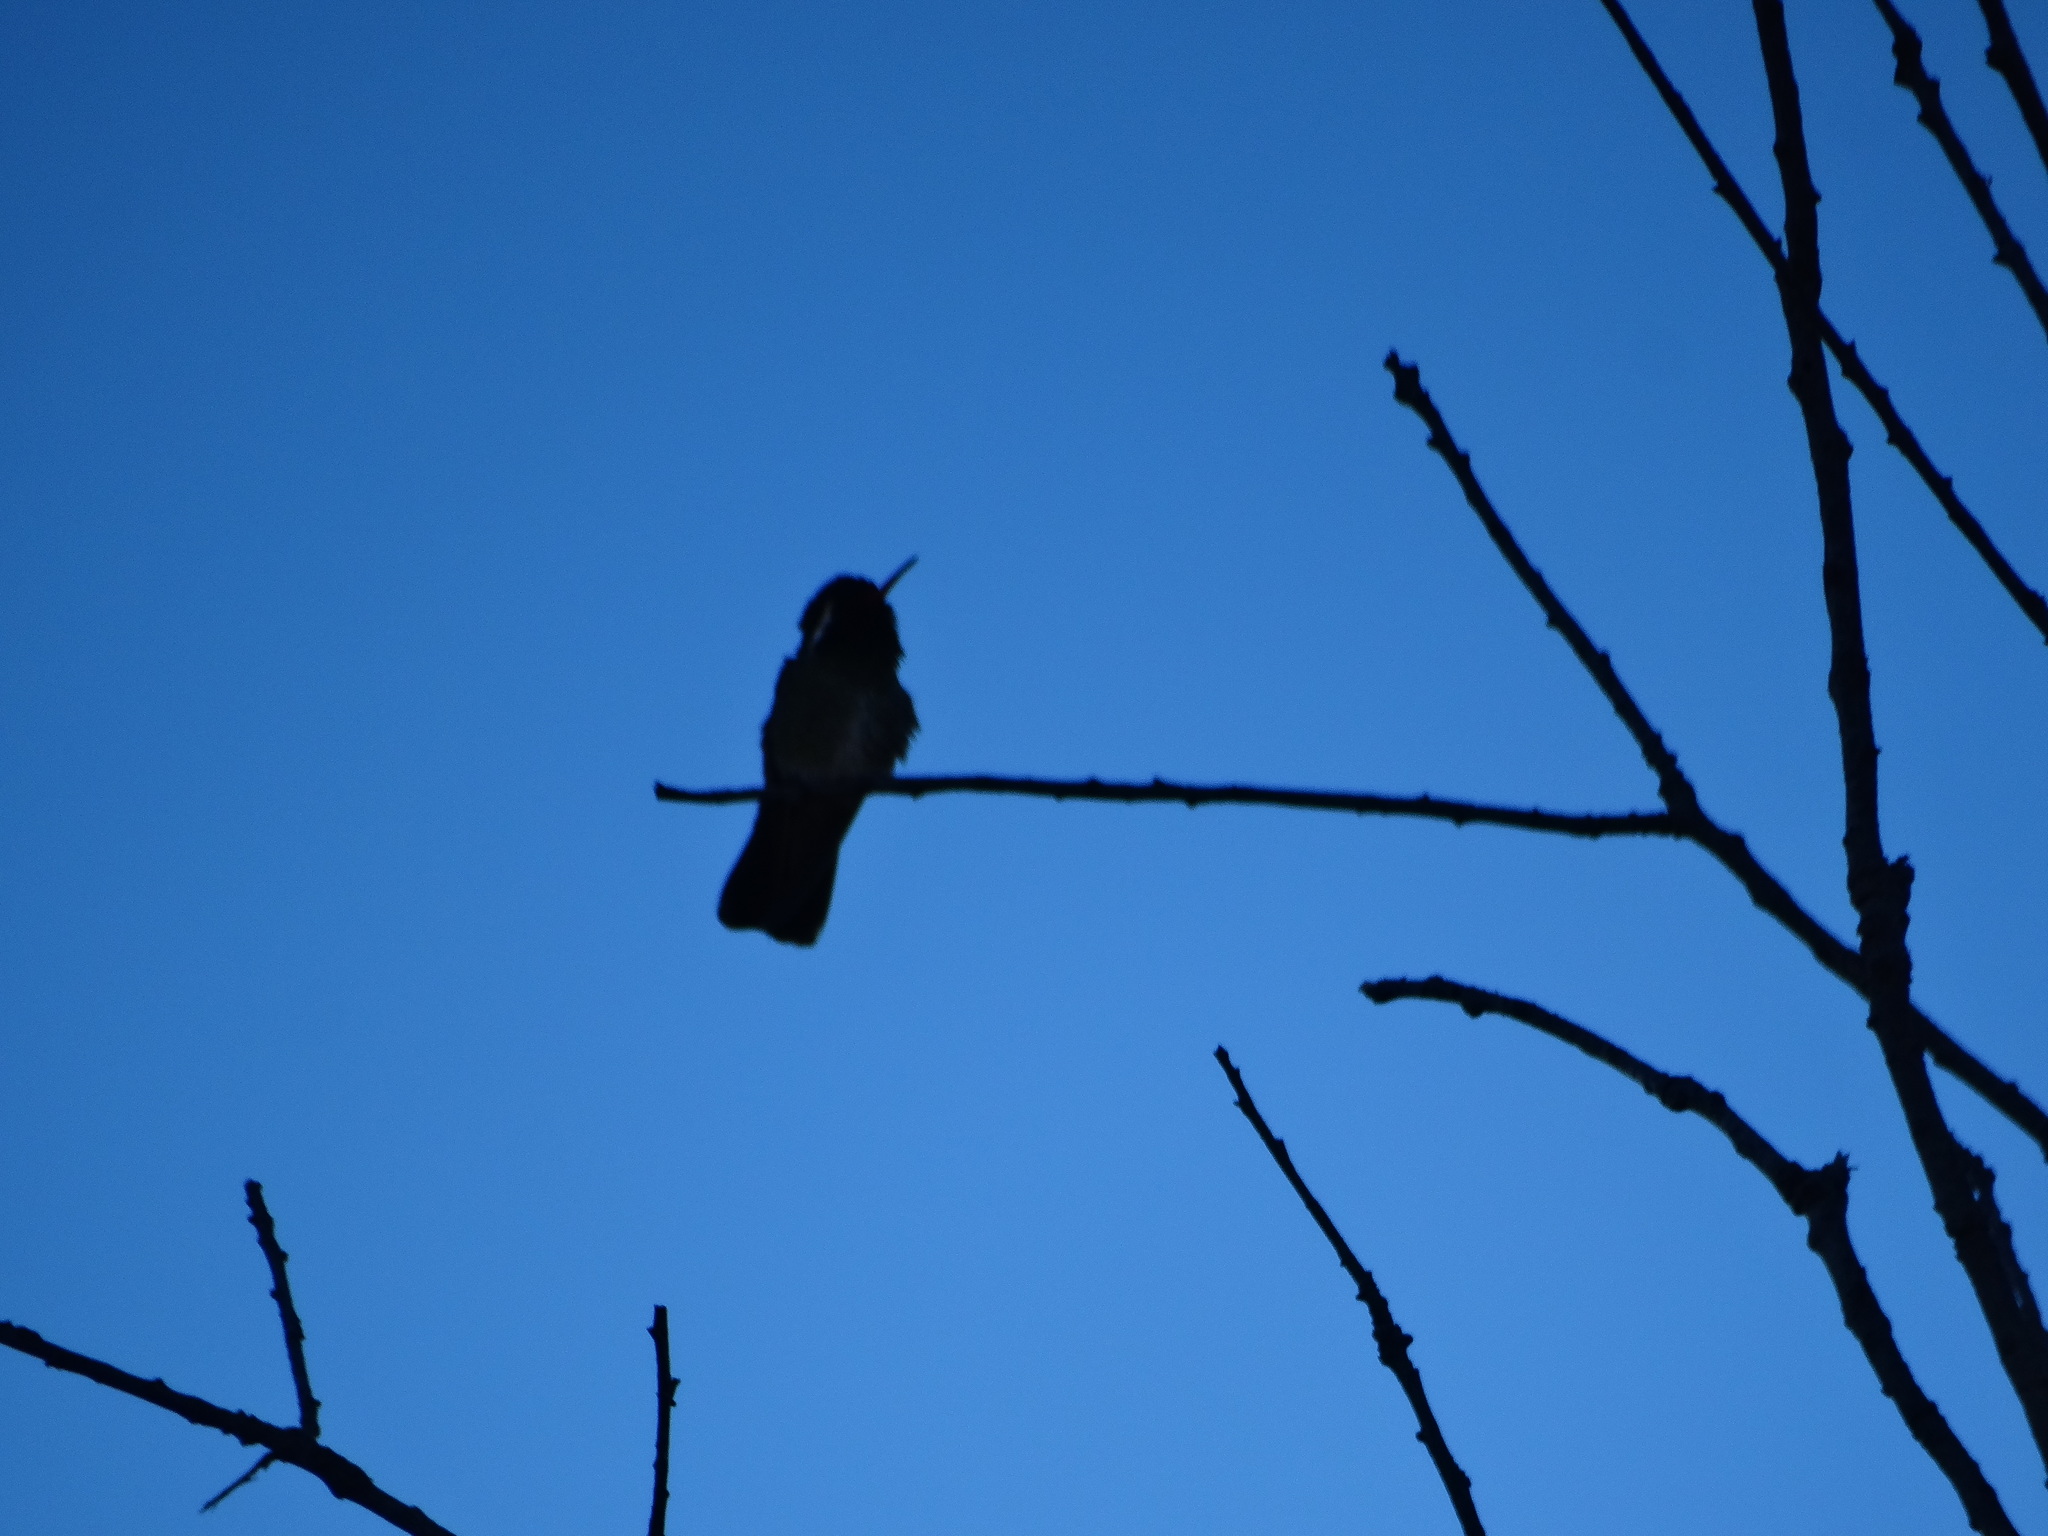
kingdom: Animalia
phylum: Chordata
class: Aves
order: Apodiformes
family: Trochilidae
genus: Basilinna
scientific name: Basilinna leucotis
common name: White-eared hummingbird
